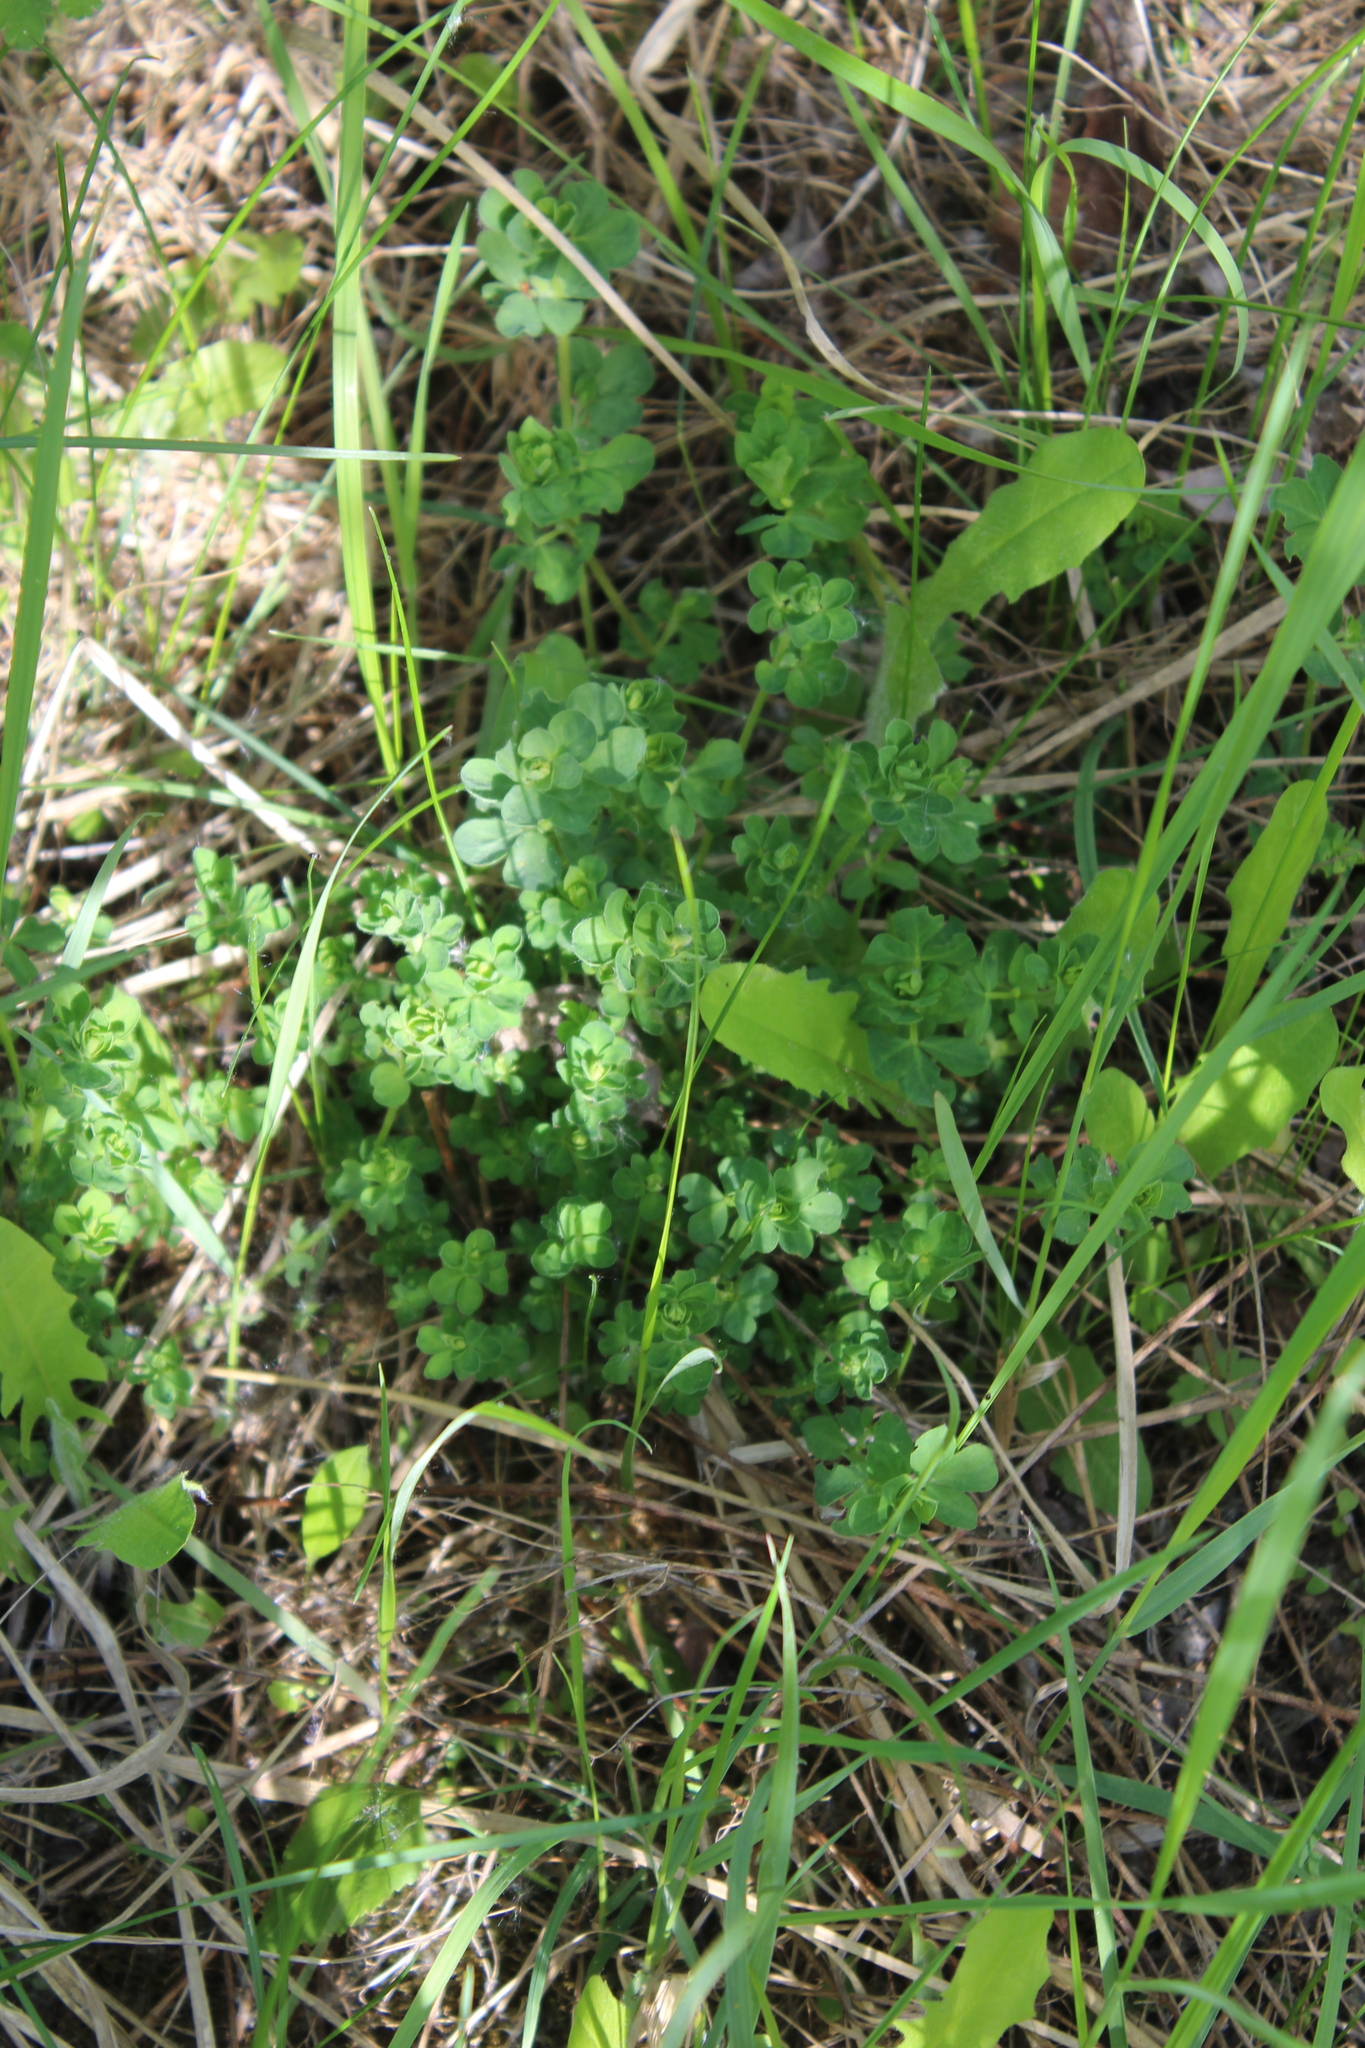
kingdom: Plantae
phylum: Tracheophyta
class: Magnoliopsida
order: Fabales
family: Fabaceae
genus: Lotus
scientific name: Lotus corniculatus
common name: Common bird's-foot-trefoil
